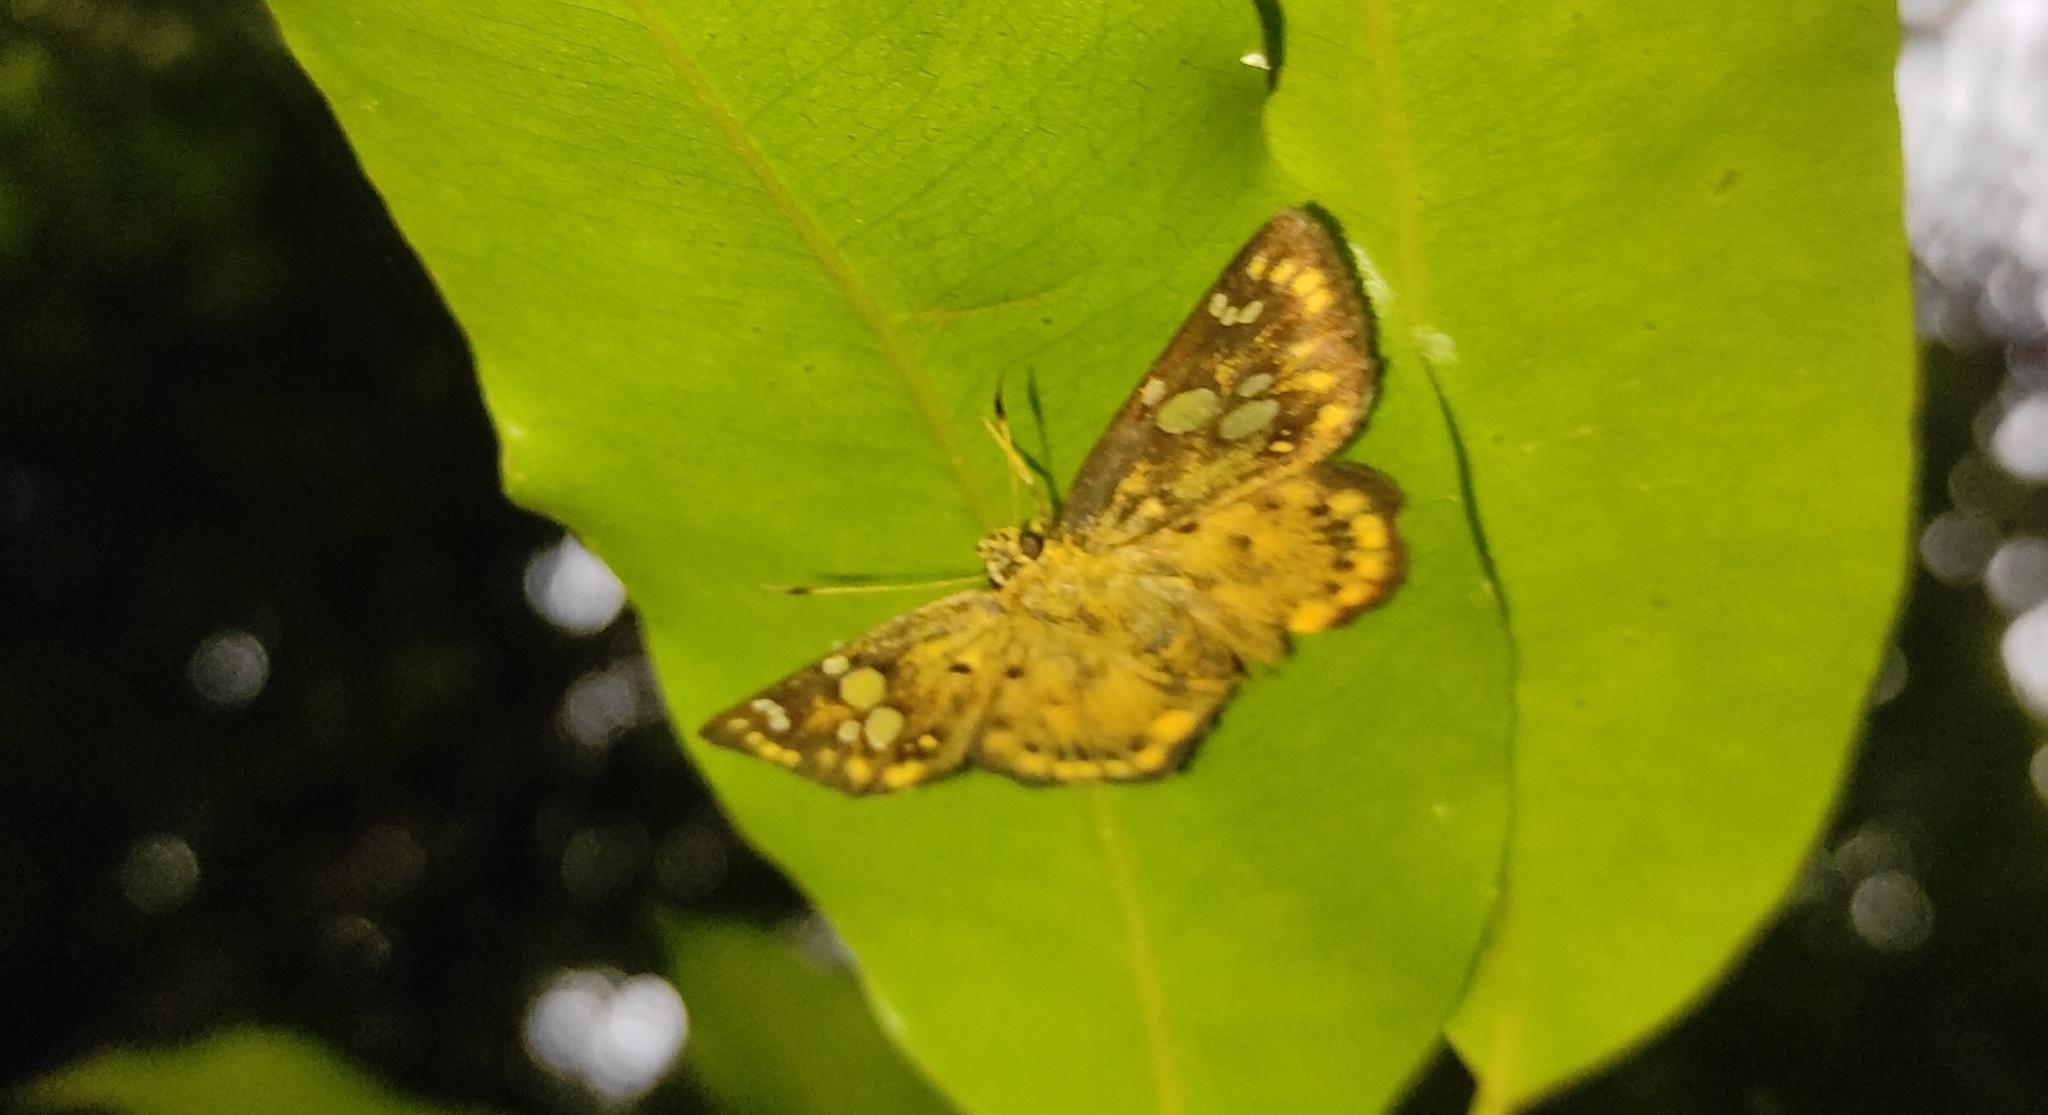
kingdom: Animalia
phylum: Arthropoda
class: Insecta
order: Lepidoptera
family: Hesperiidae
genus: Coladenia
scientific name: Coladenia
